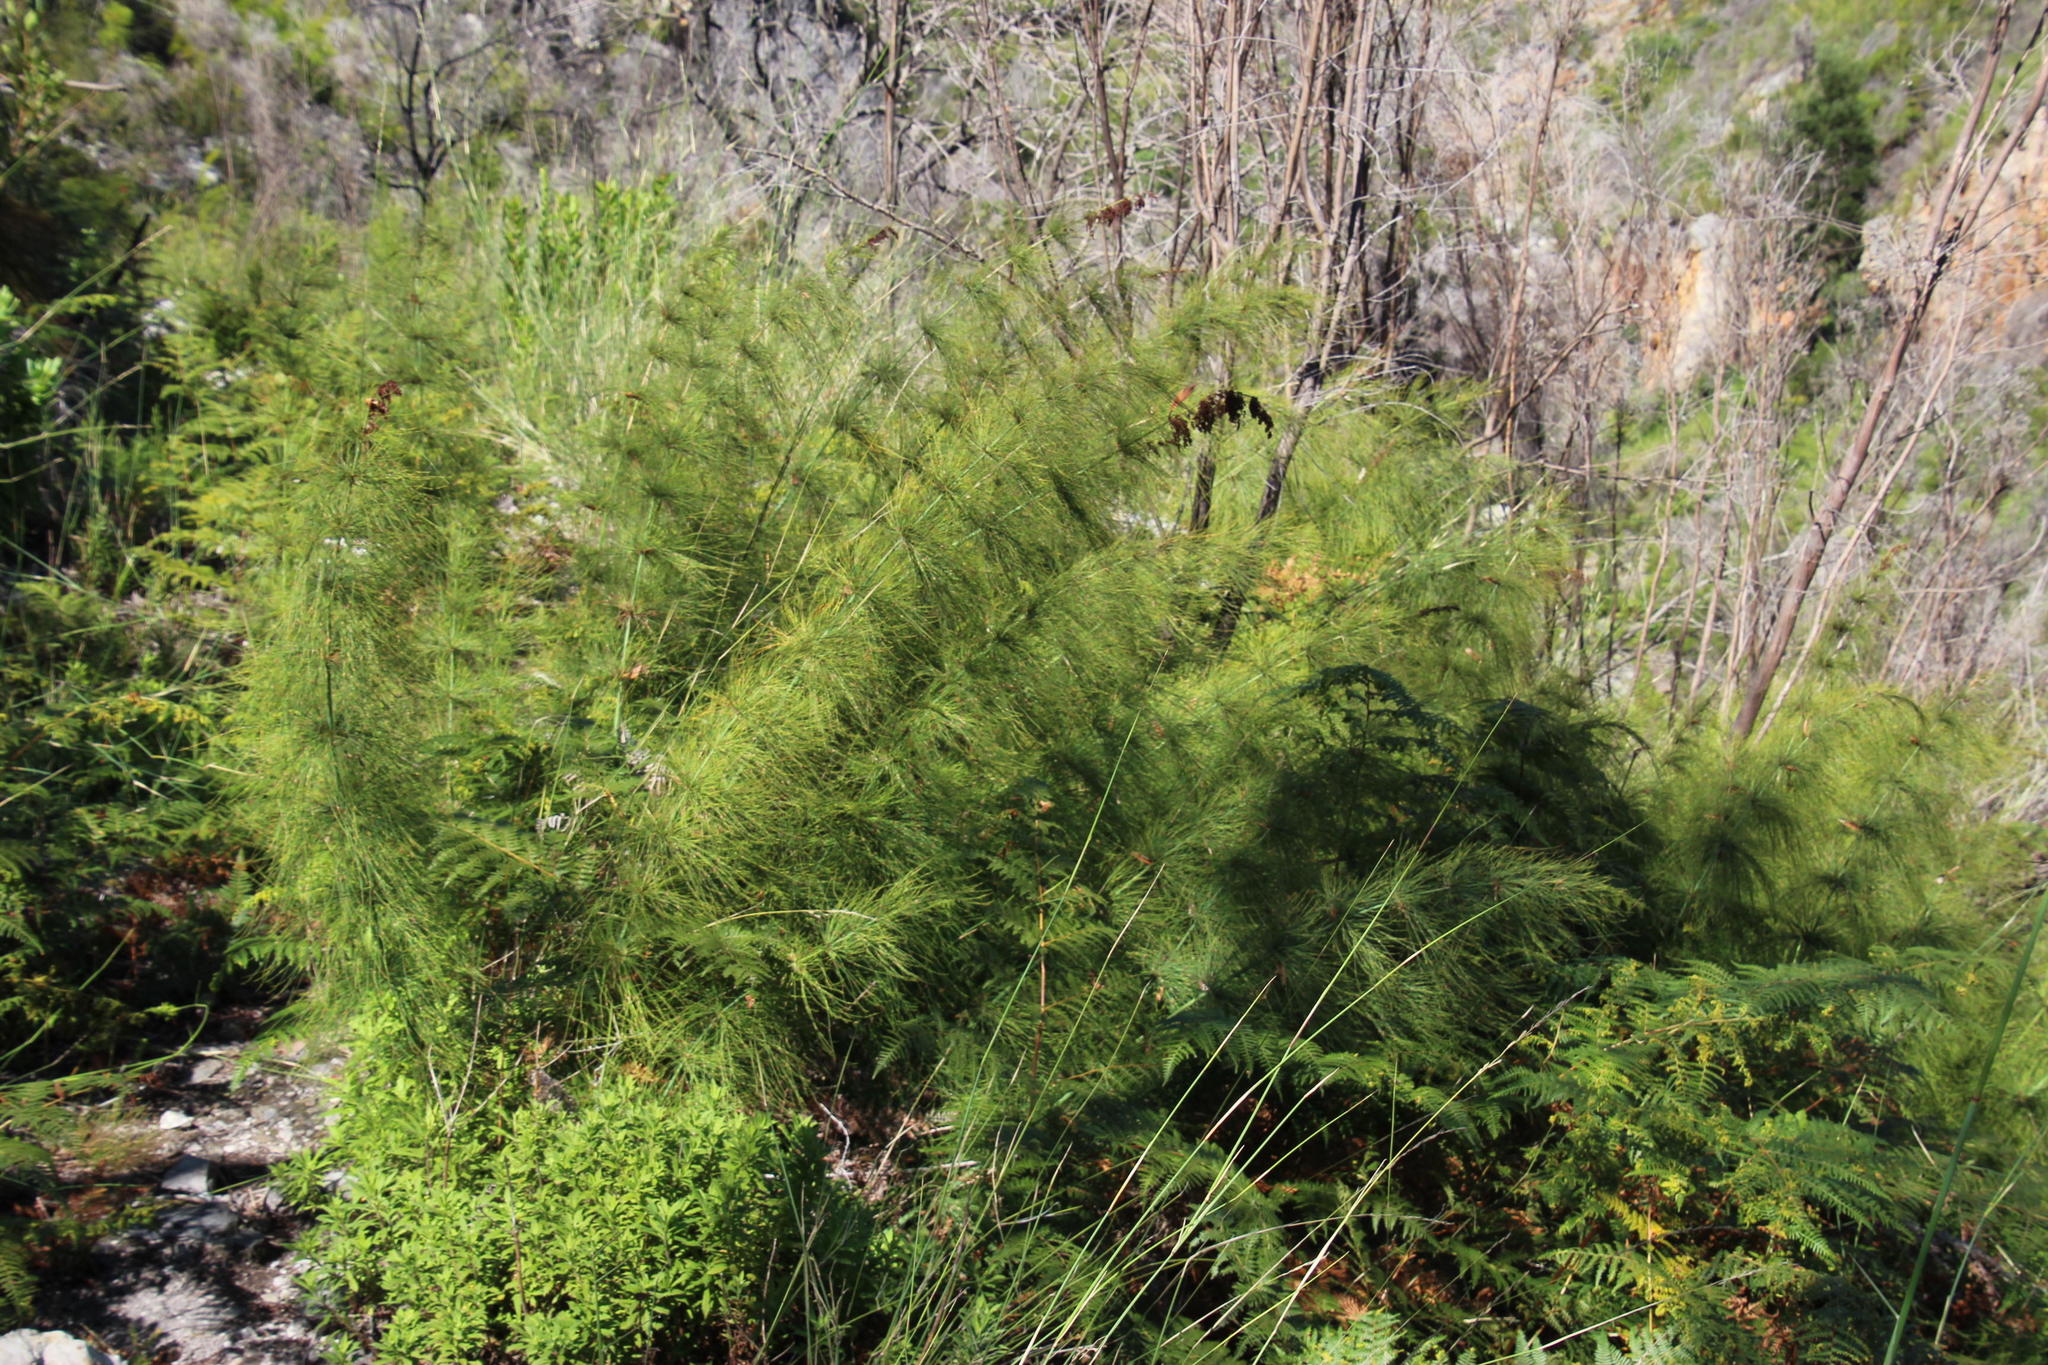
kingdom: Plantae
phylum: Tracheophyta
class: Liliopsida
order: Poales
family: Restionaceae
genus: Elegia
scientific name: Elegia capensis
